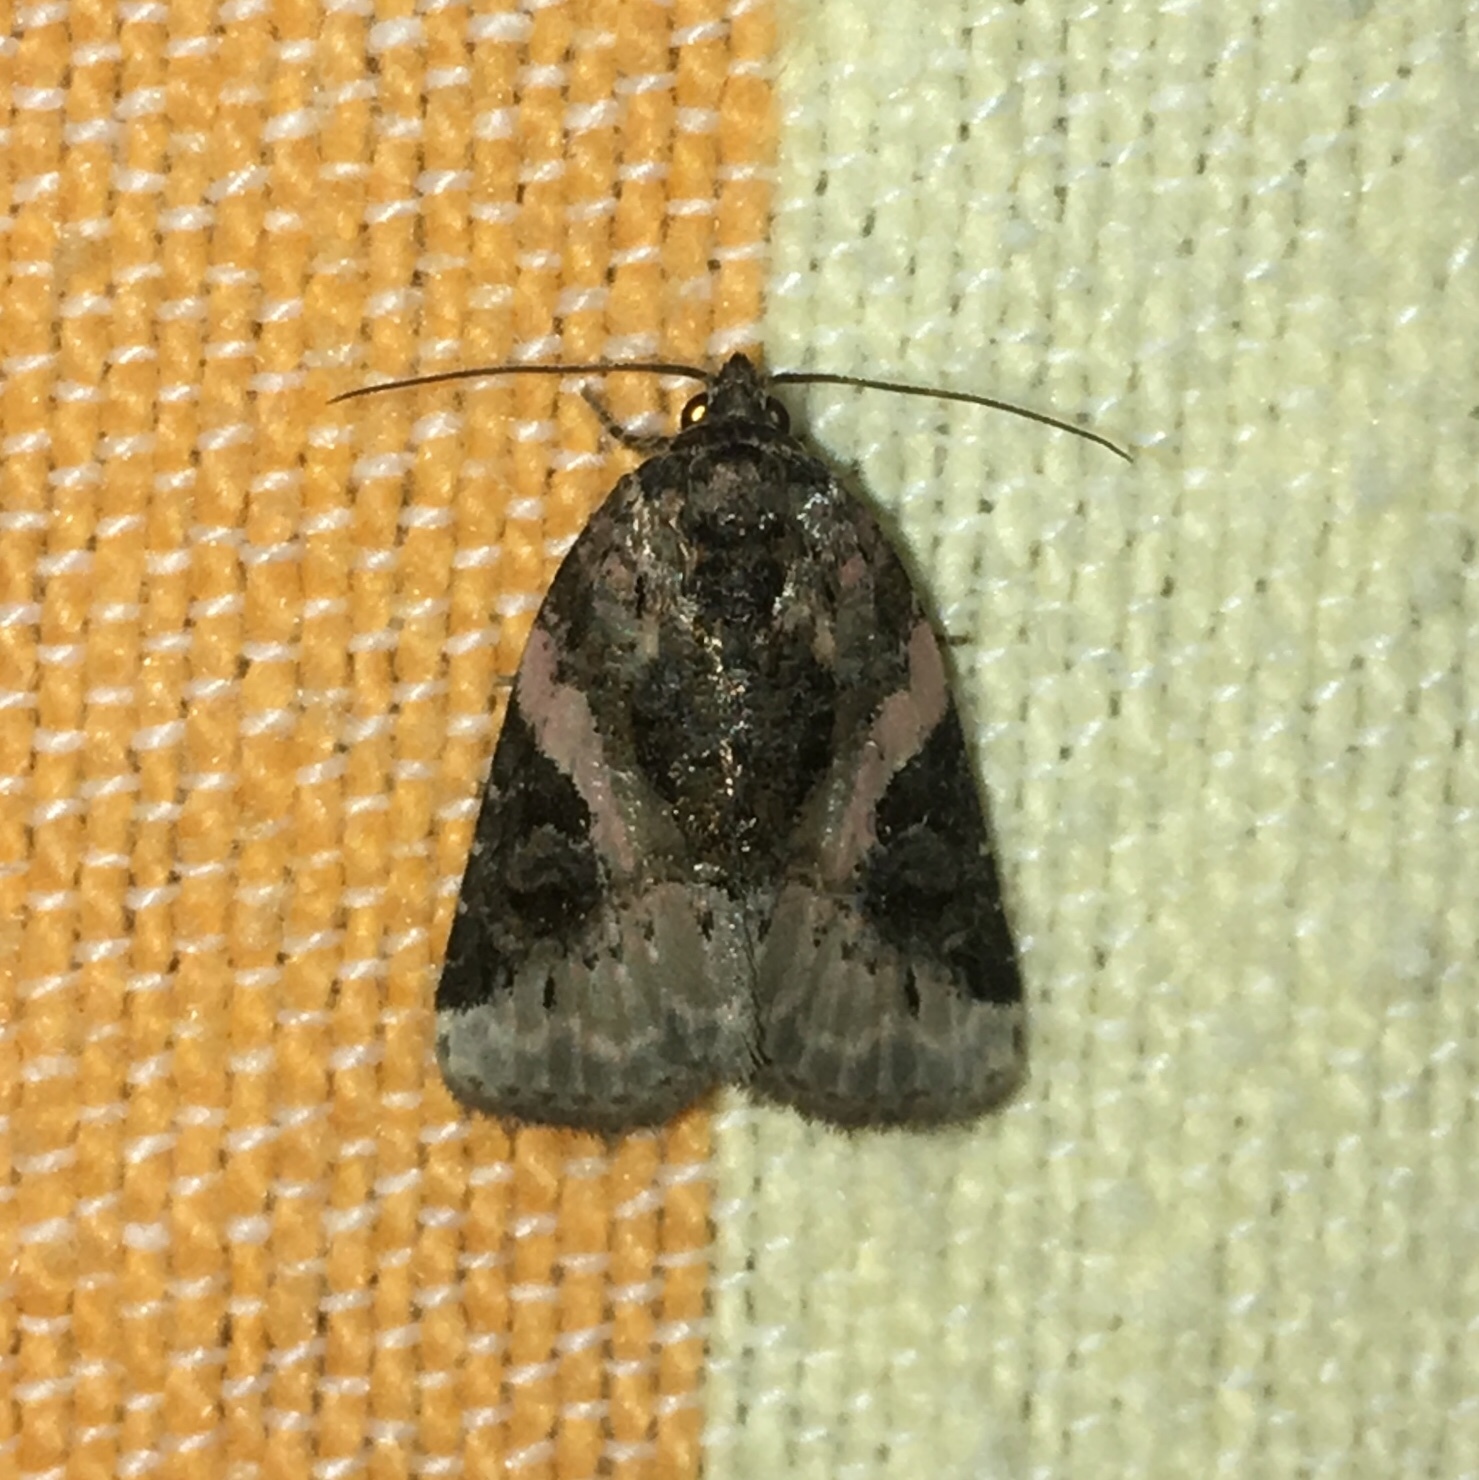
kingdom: Animalia
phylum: Arthropoda
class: Insecta
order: Lepidoptera
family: Noctuidae
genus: Pseudeustrotia
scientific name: Pseudeustrotia carneola
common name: Pink-barred lithacodia moth
